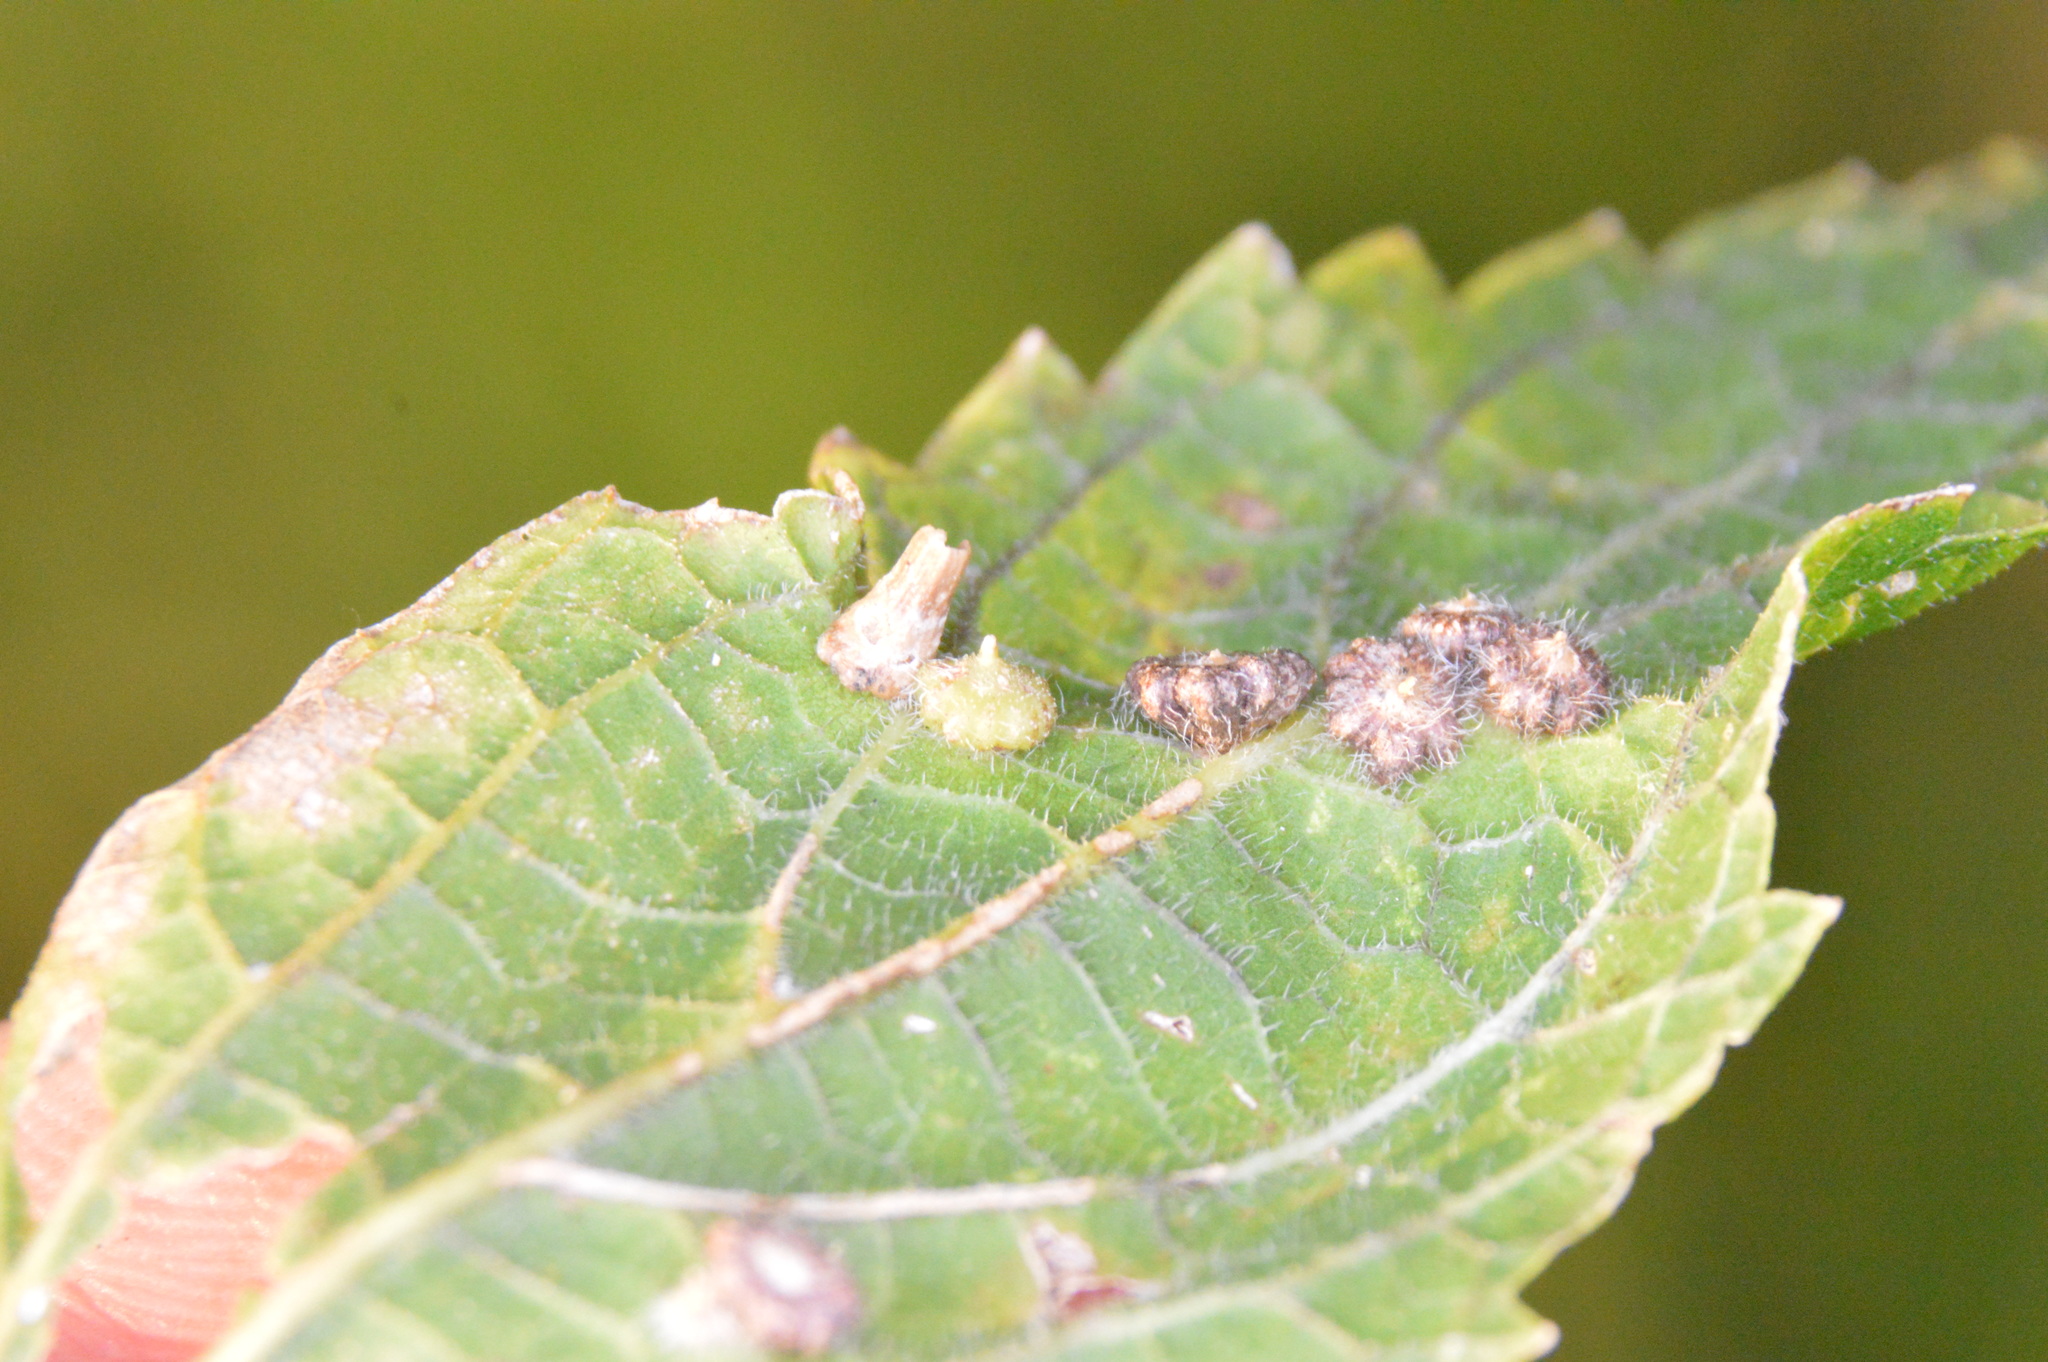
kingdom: Animalia
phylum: Arthropoda
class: Insecta
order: Diptera
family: Cecidomyiidae
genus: Celticecis
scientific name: Celticecis capsularis
